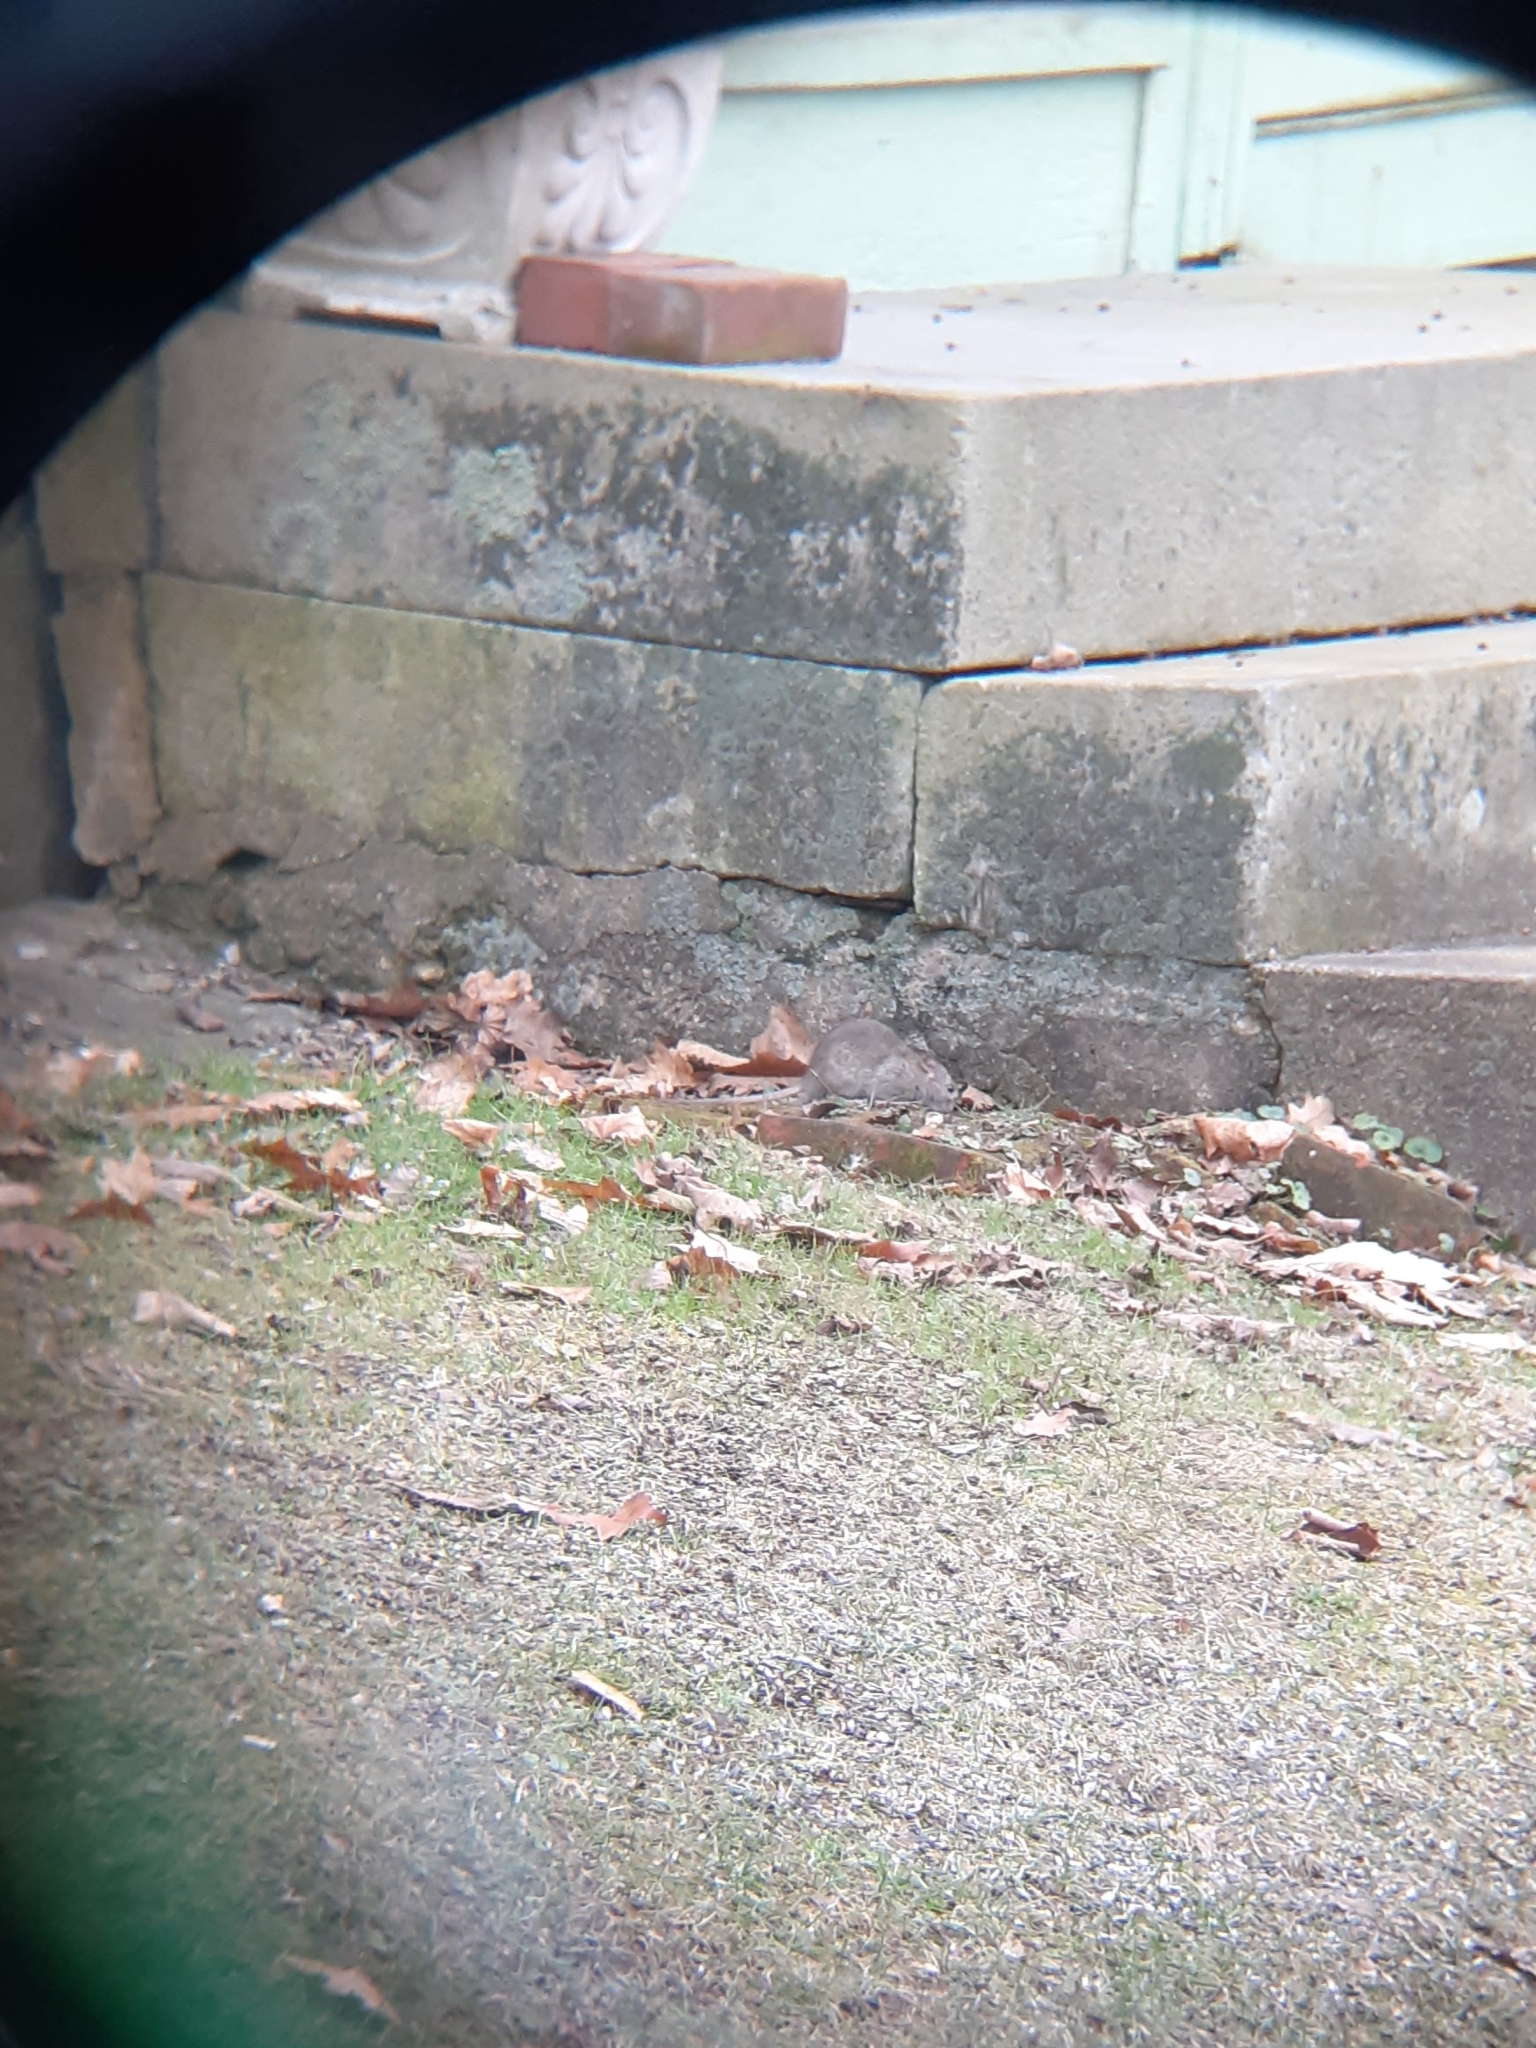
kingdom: Animalia
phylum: Chordata
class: Mammalia
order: Rodentia
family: Muridae
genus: Rattus
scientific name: Rattus norvegicus
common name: Brown rat
